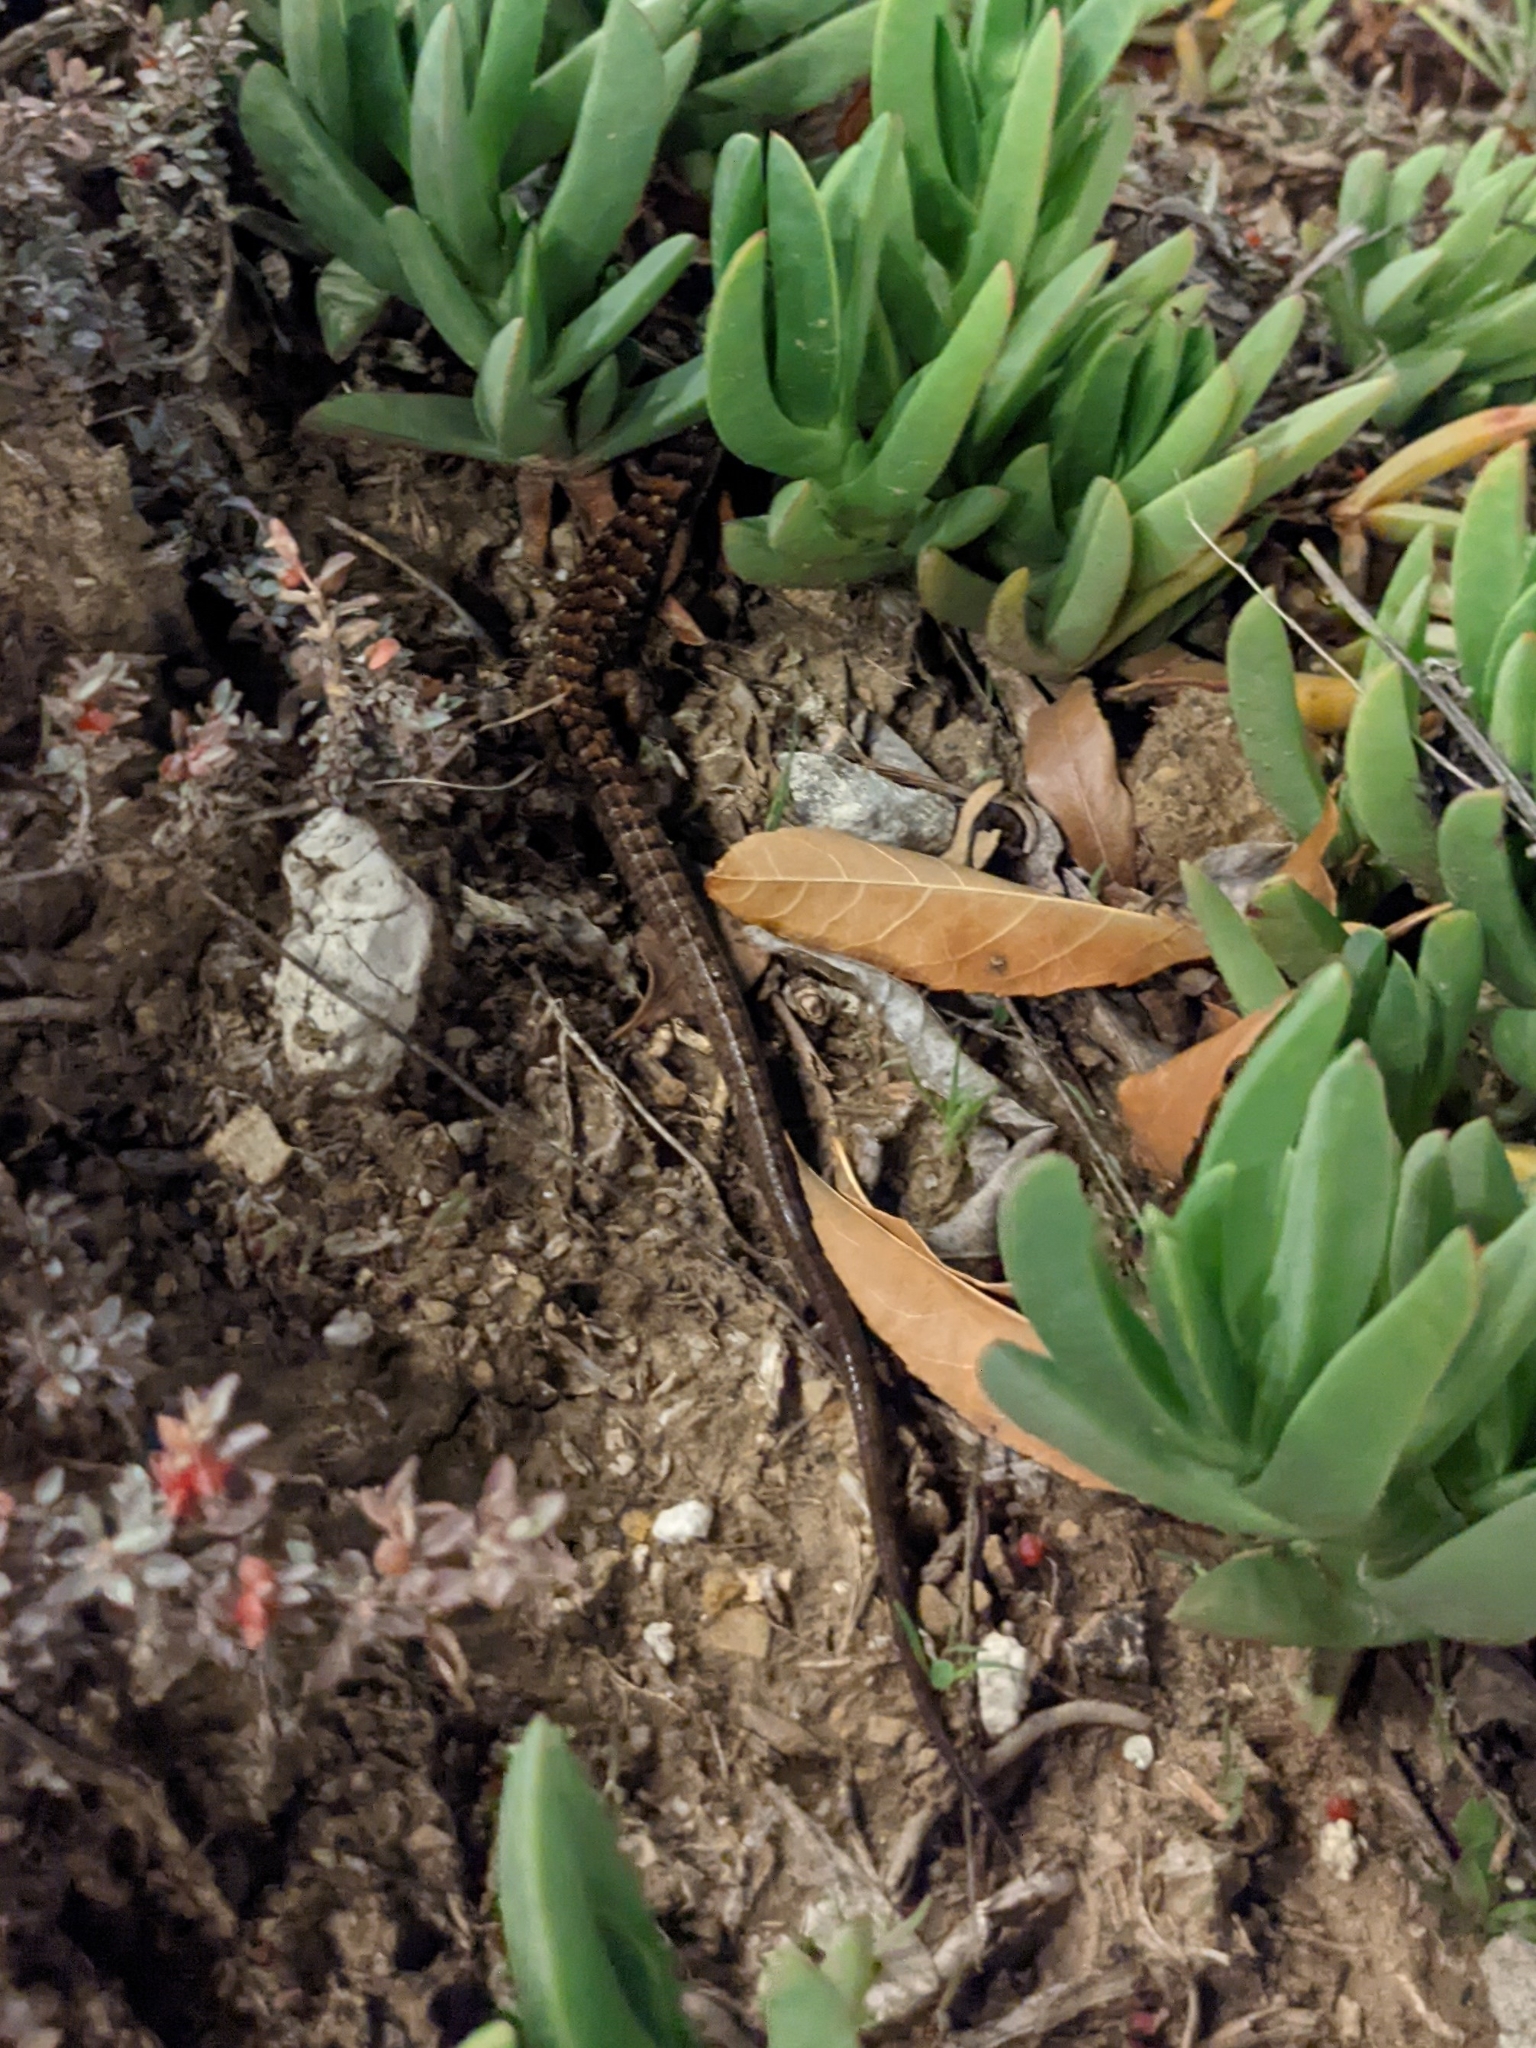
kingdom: Animalia
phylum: Chordata
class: Squamata
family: Anguidae
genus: Elgaria
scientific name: Elgaria multicarinata
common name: Southern alligator lizard
